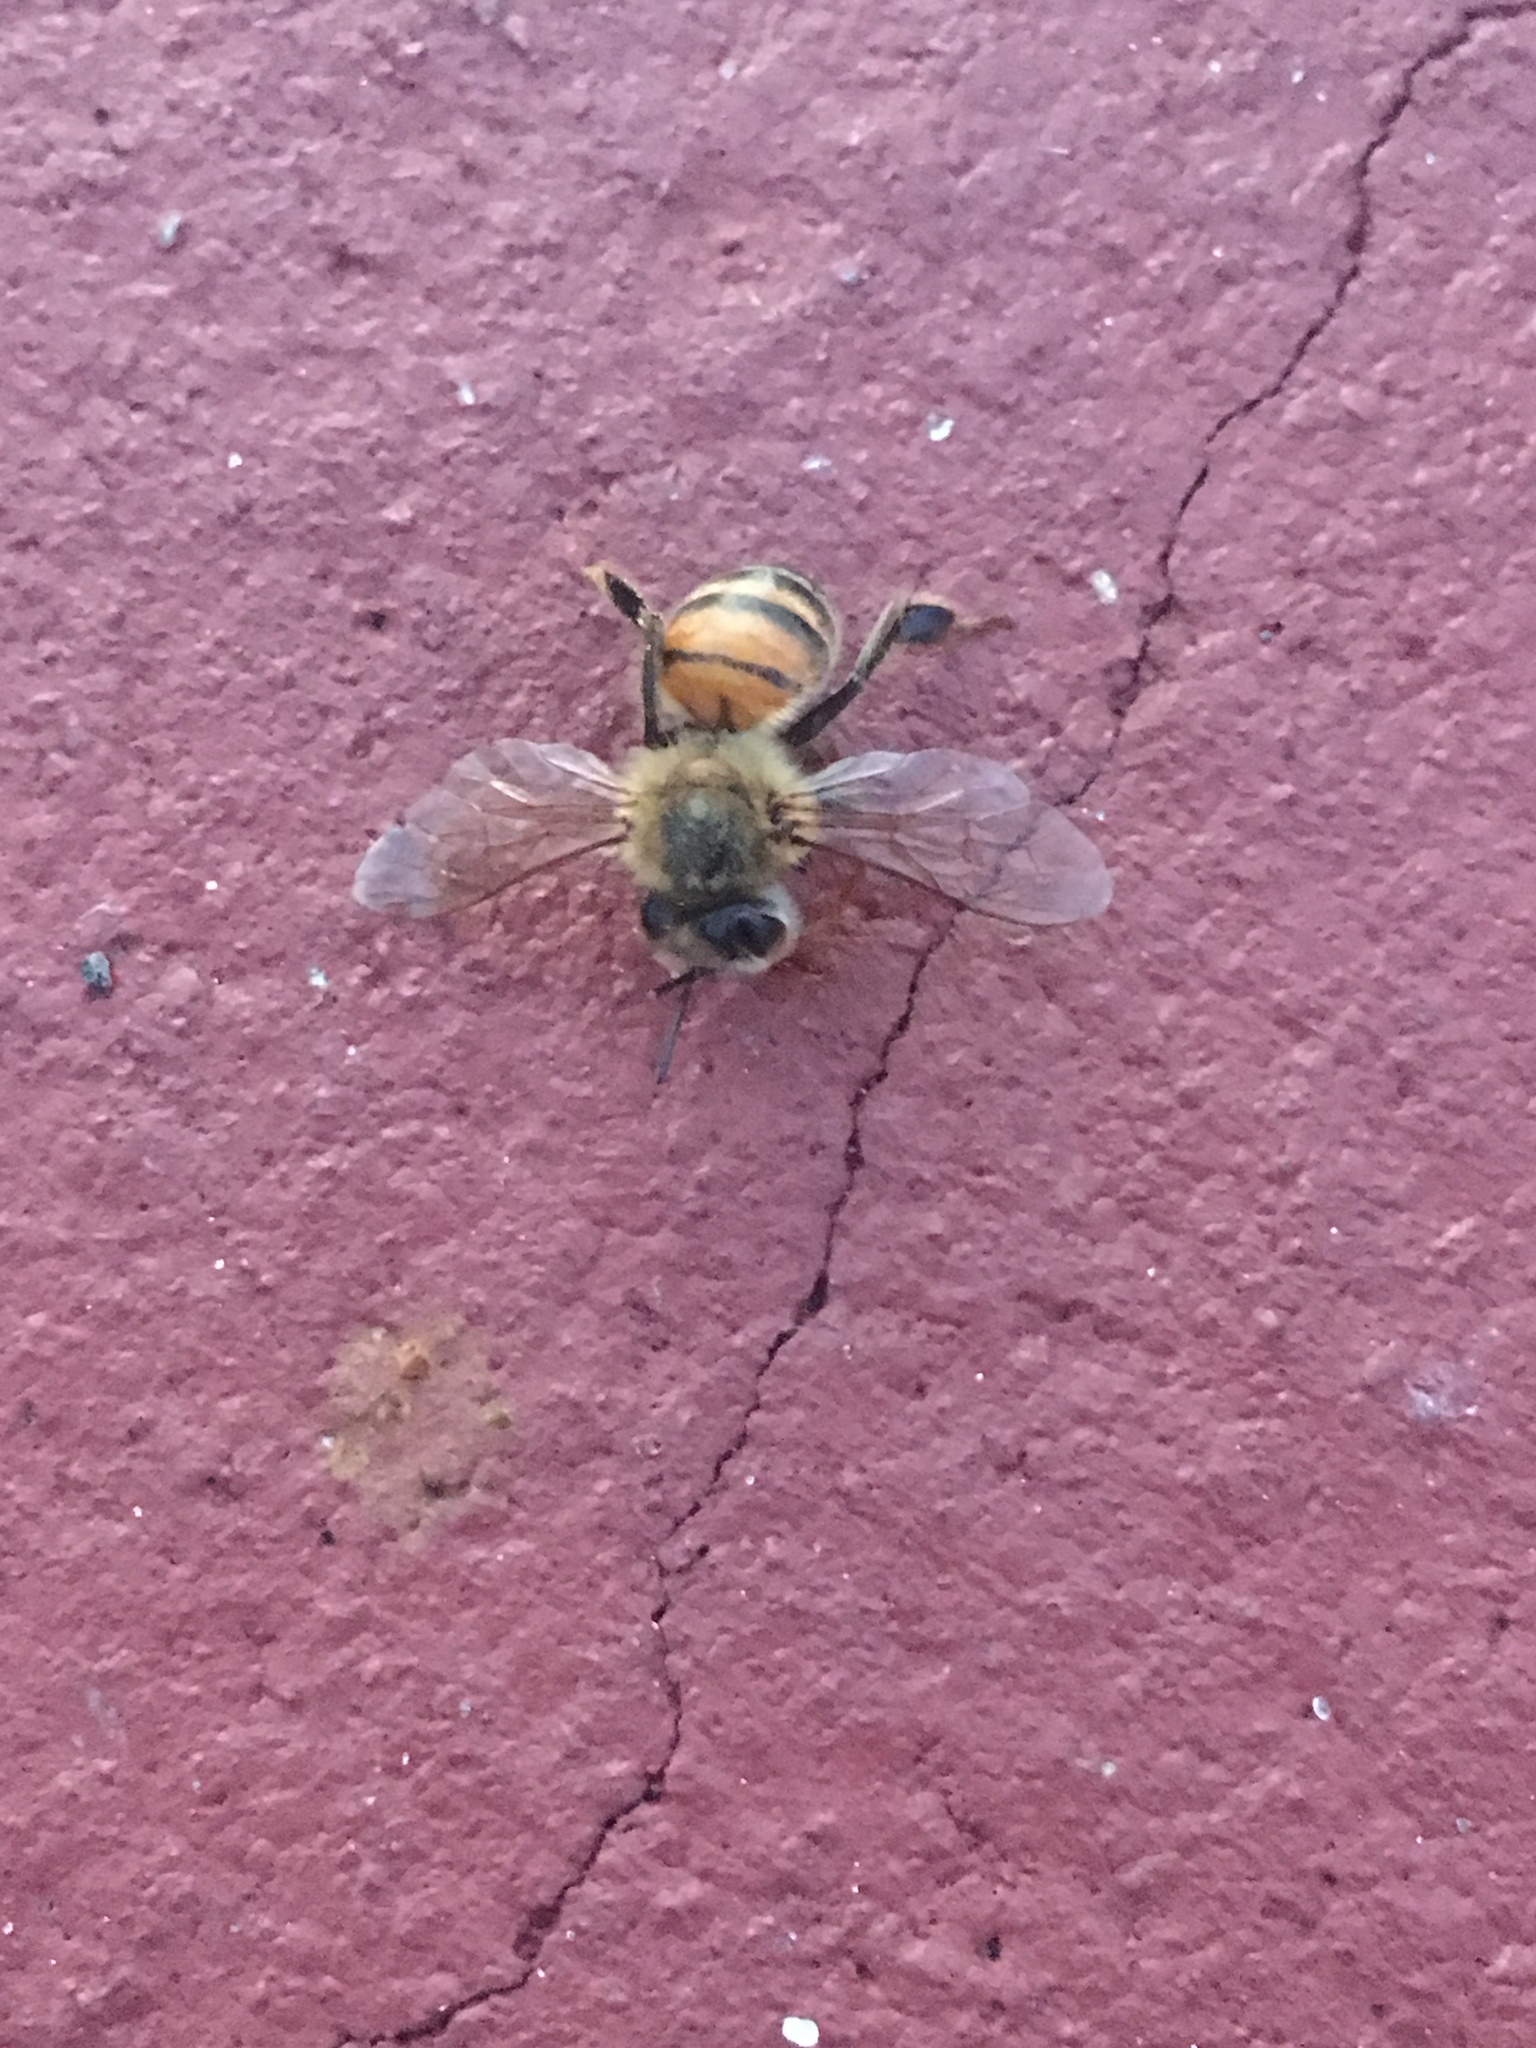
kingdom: Animalia
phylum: Arthropoda
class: Insecta
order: Hymenoptera
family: Apidae
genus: Apis
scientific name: Apis mellifera
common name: Honey bee
